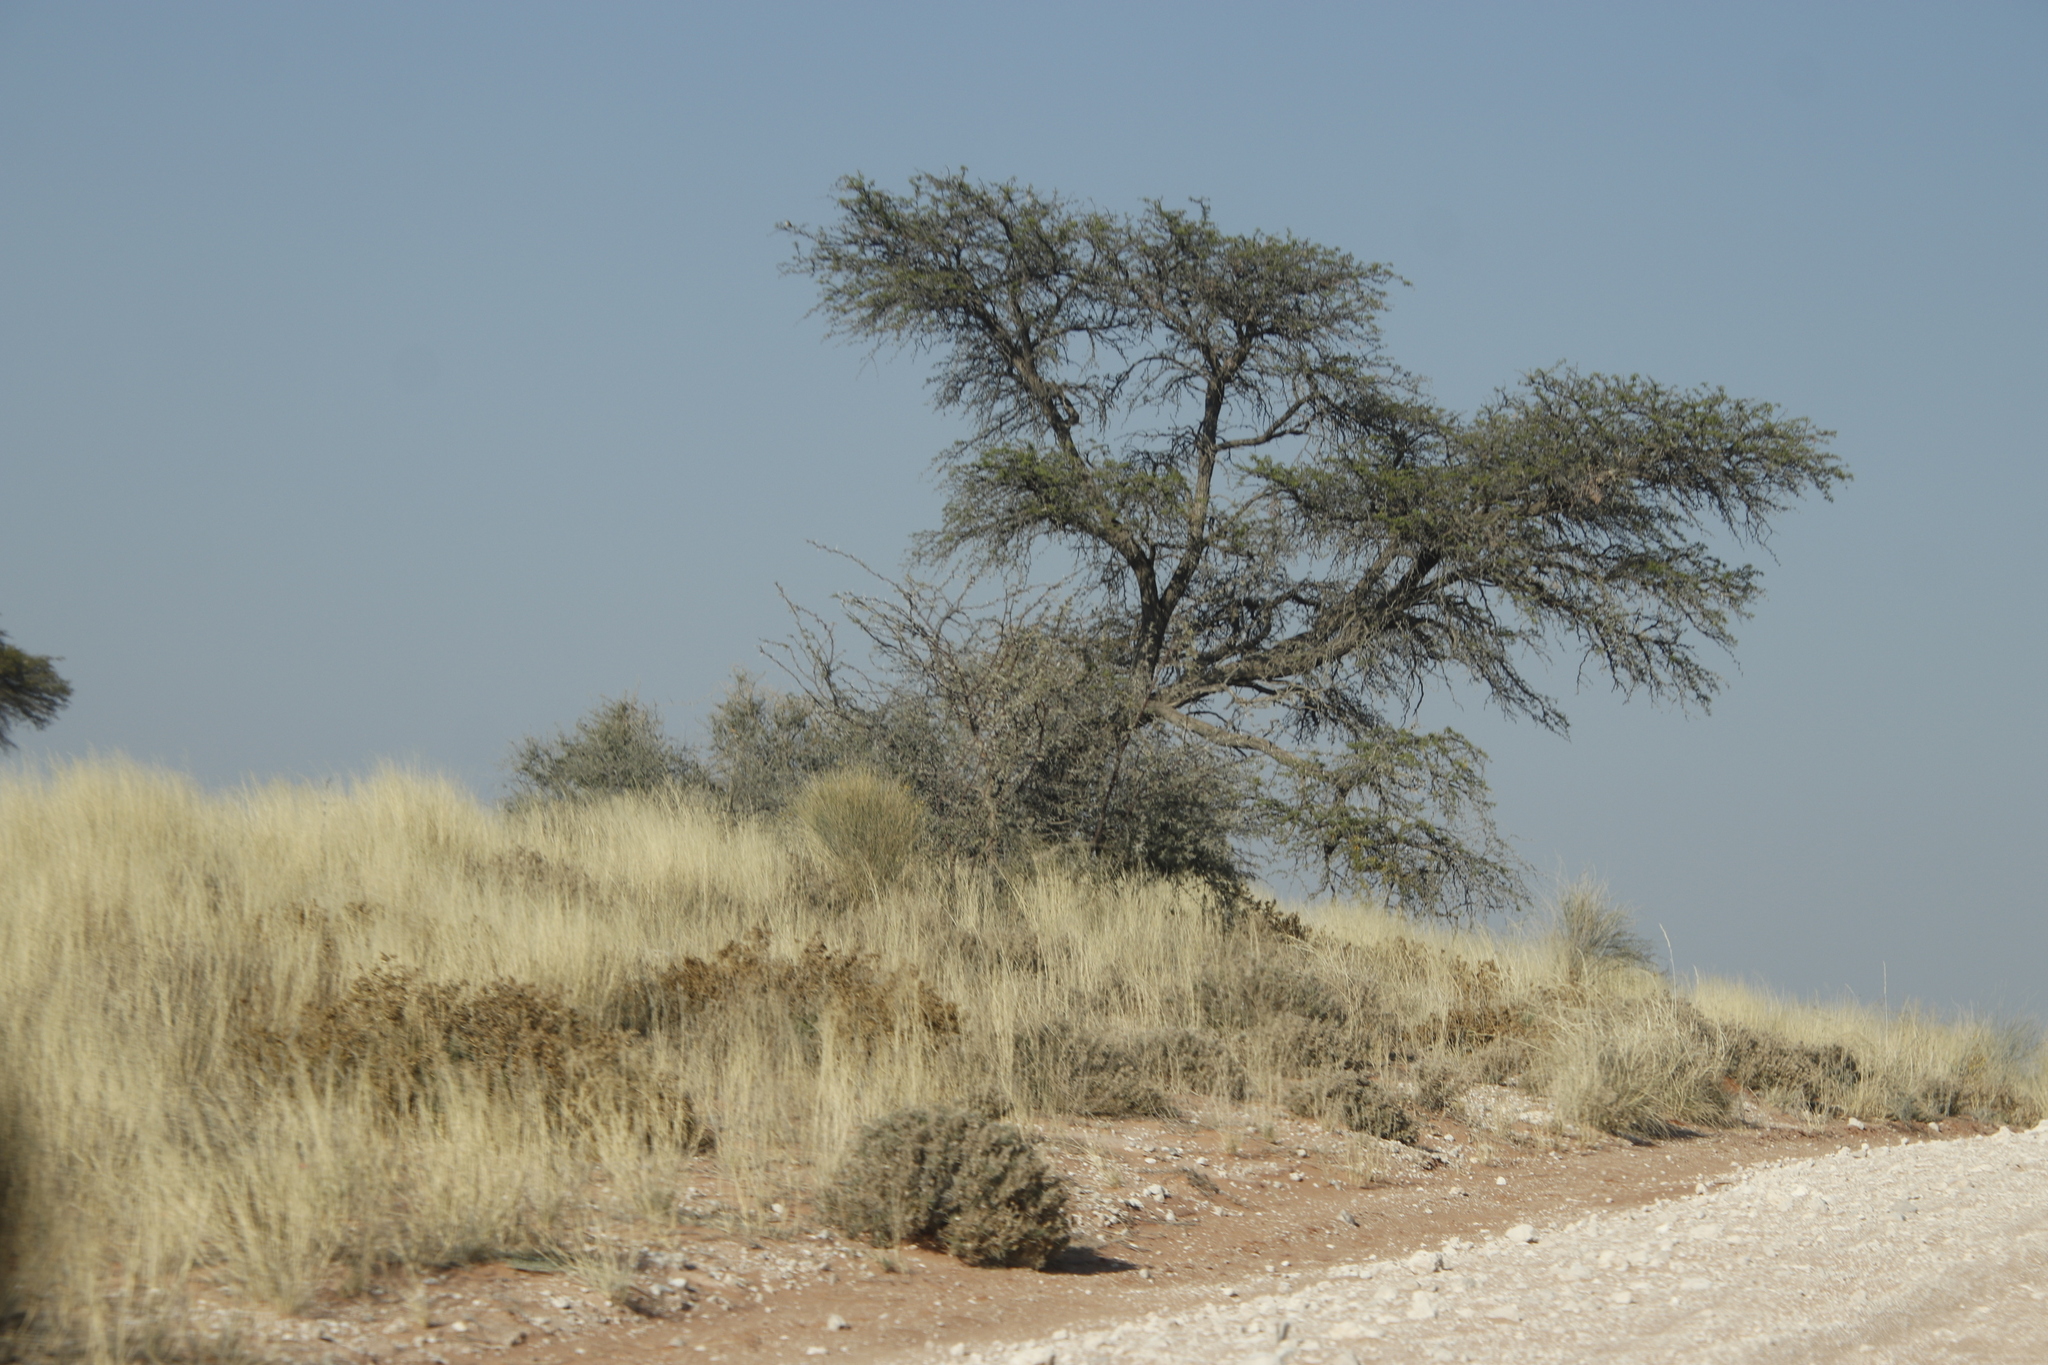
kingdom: Plantae
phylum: Tracheophyta
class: Magnoliopsida
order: Fabales
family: Fabaceae
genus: Vachellia
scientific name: Vachellia erioloba
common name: Camel thorn
